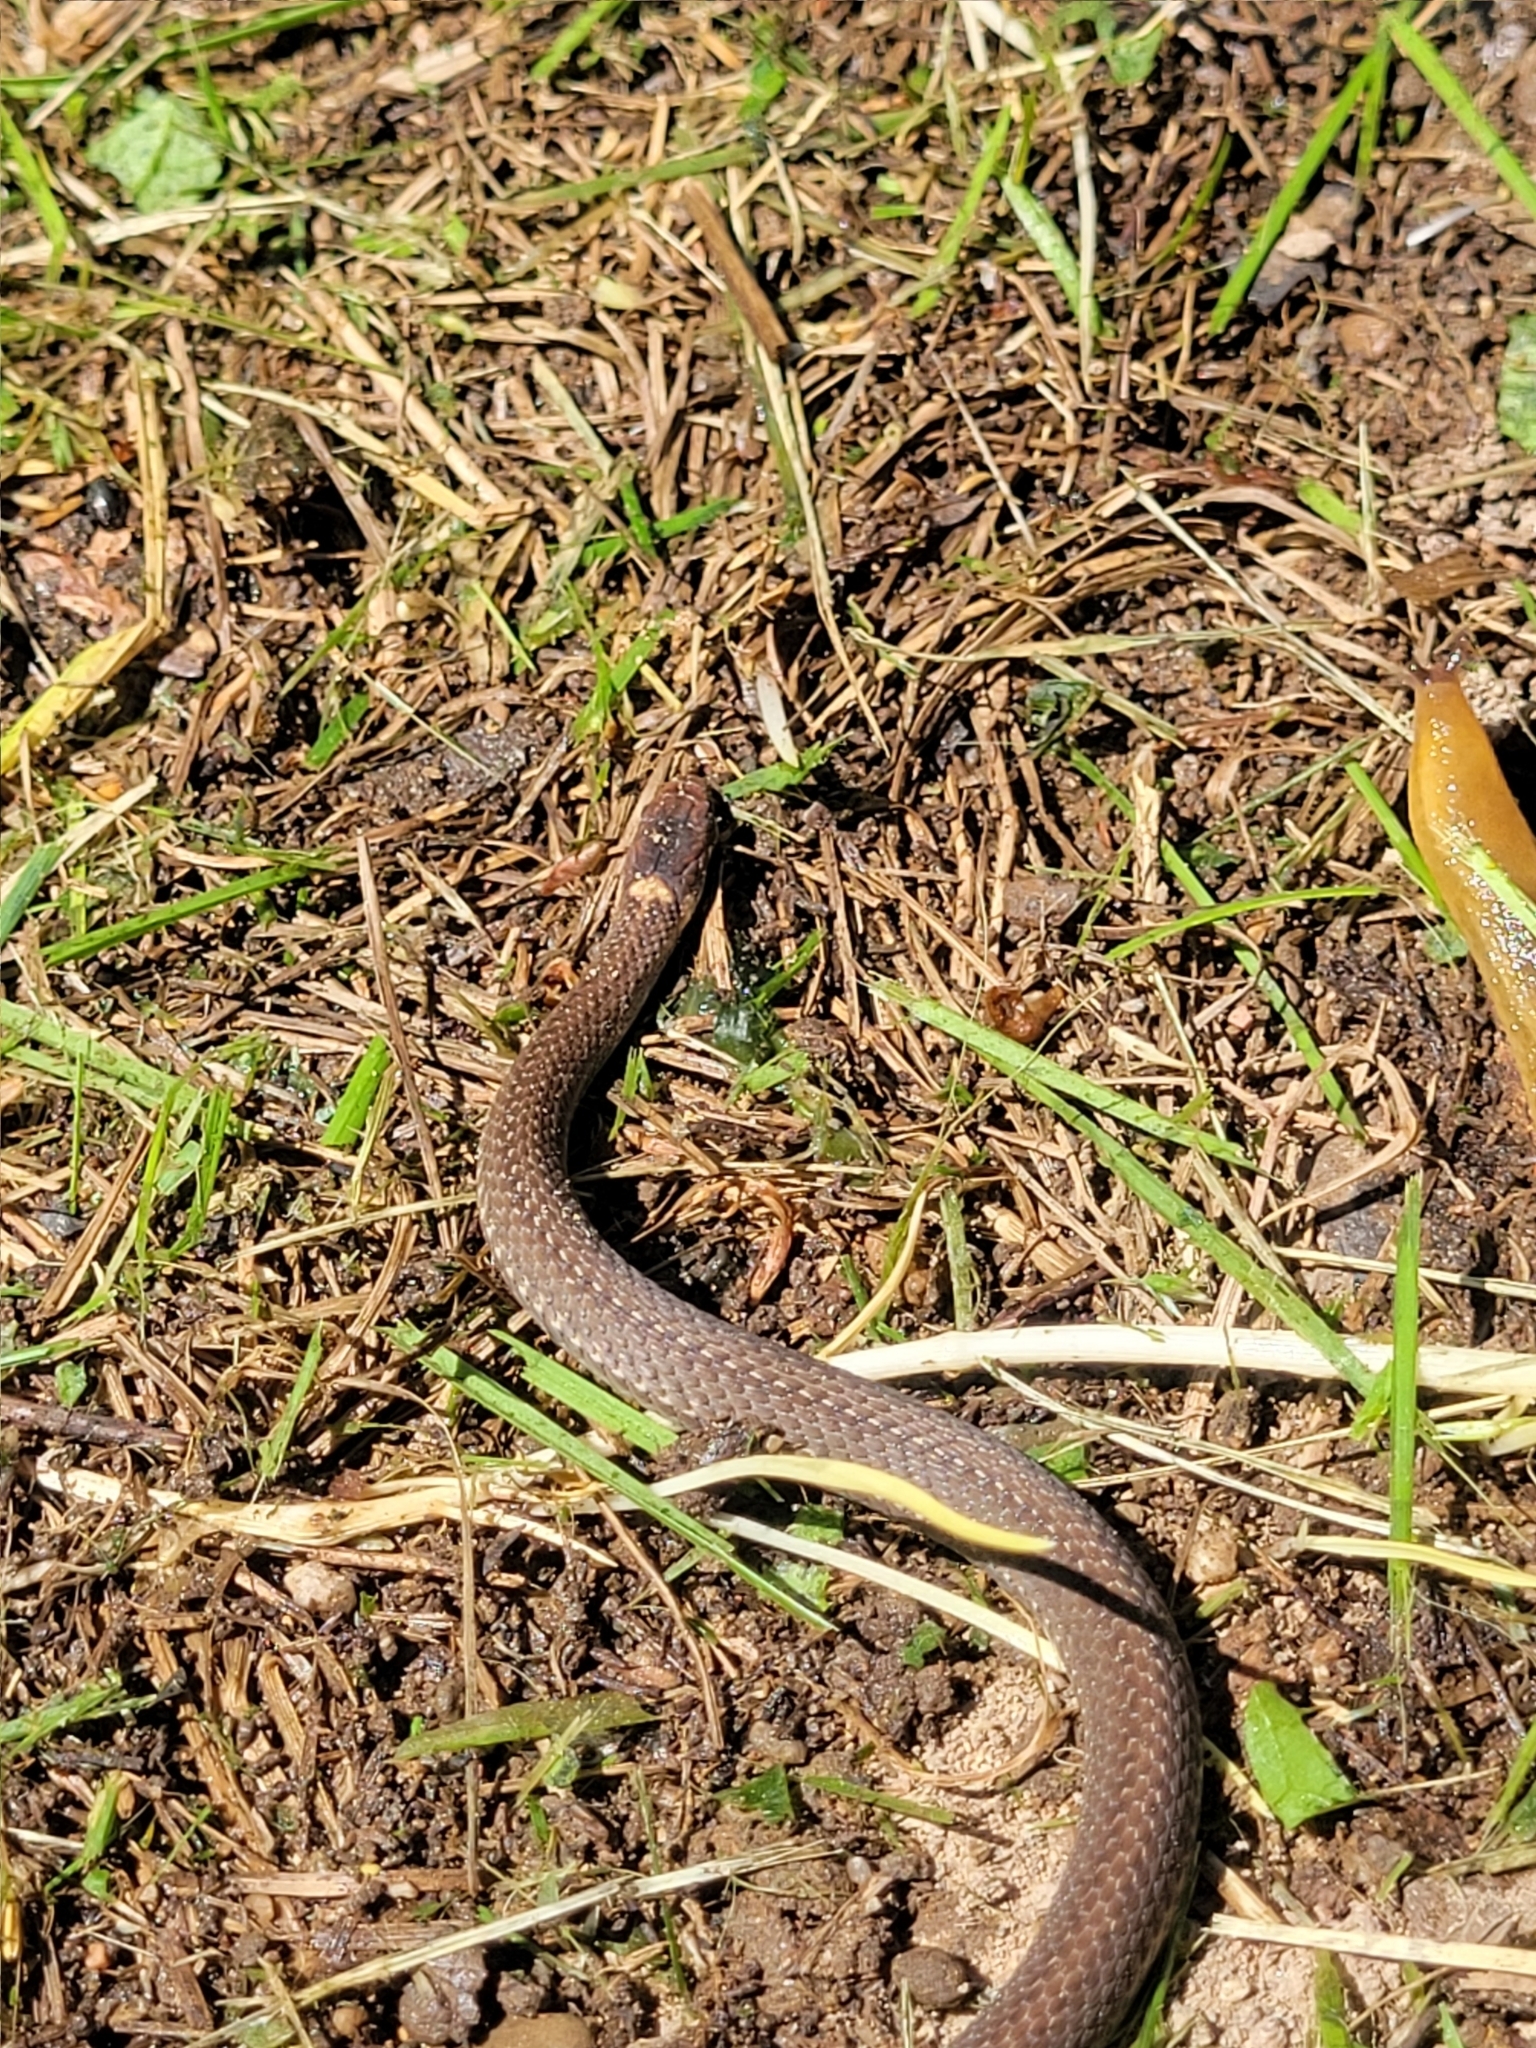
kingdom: Animalia
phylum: Chordata
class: Squamata
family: Colubridae
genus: Storeria
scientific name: Storeria occipitomaculata
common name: Redbelly snake
